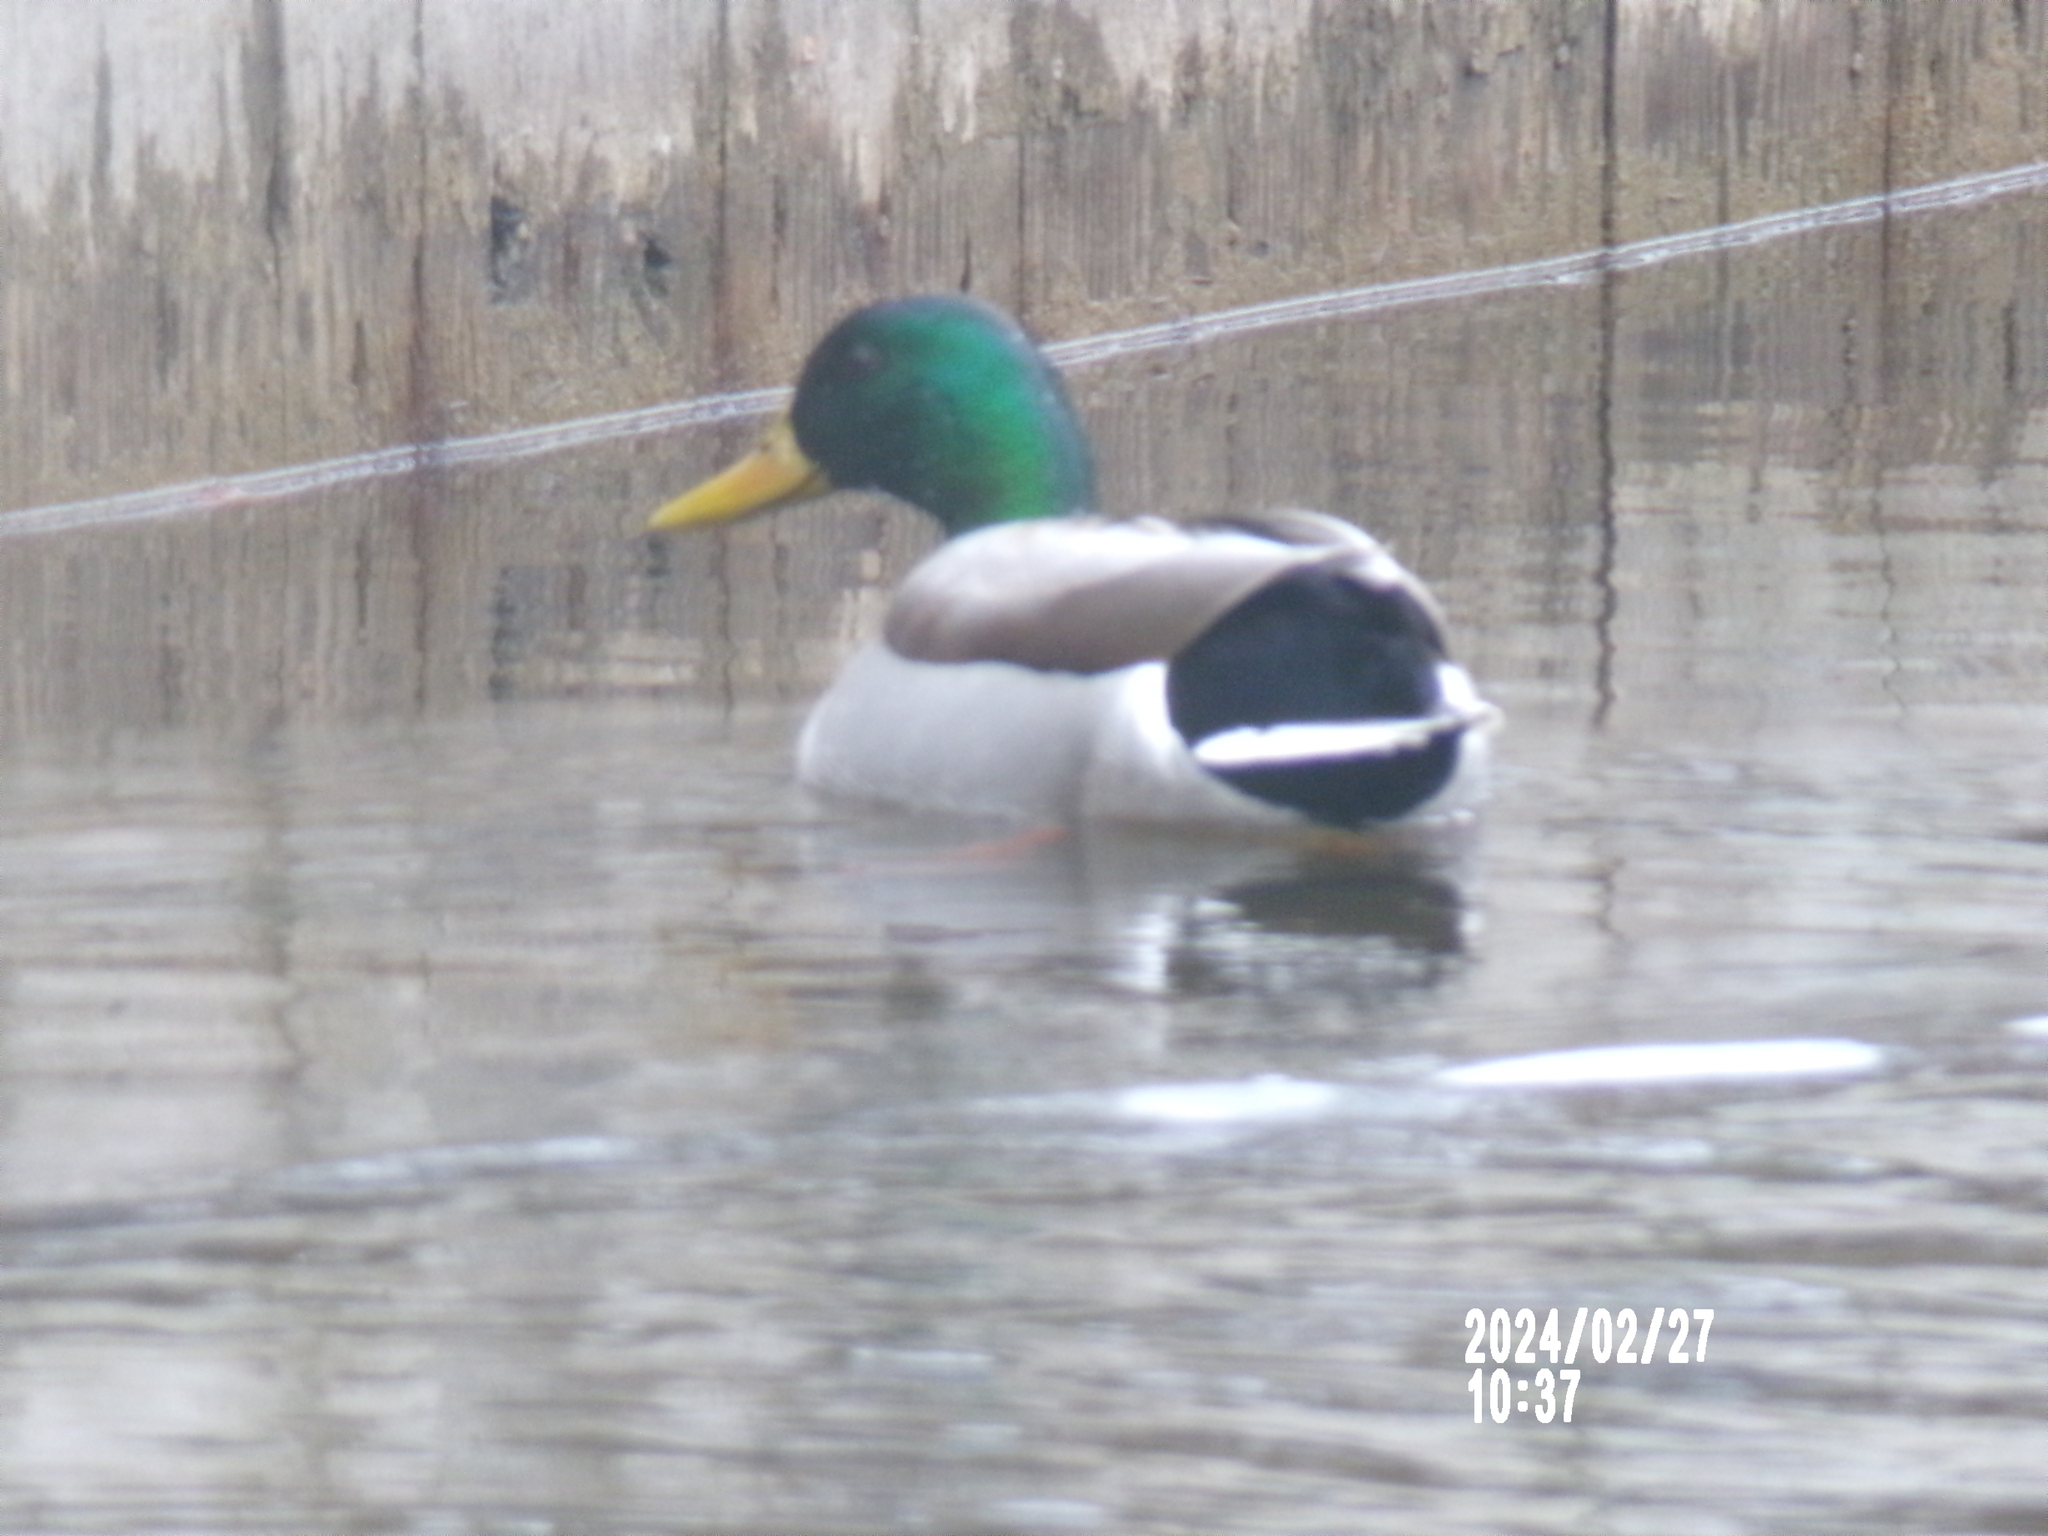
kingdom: Animalia
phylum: Chordata
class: Aves
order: Anseriformes
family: Anatidae
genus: Anas
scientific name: Anas platyrhynchos
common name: Mallard
